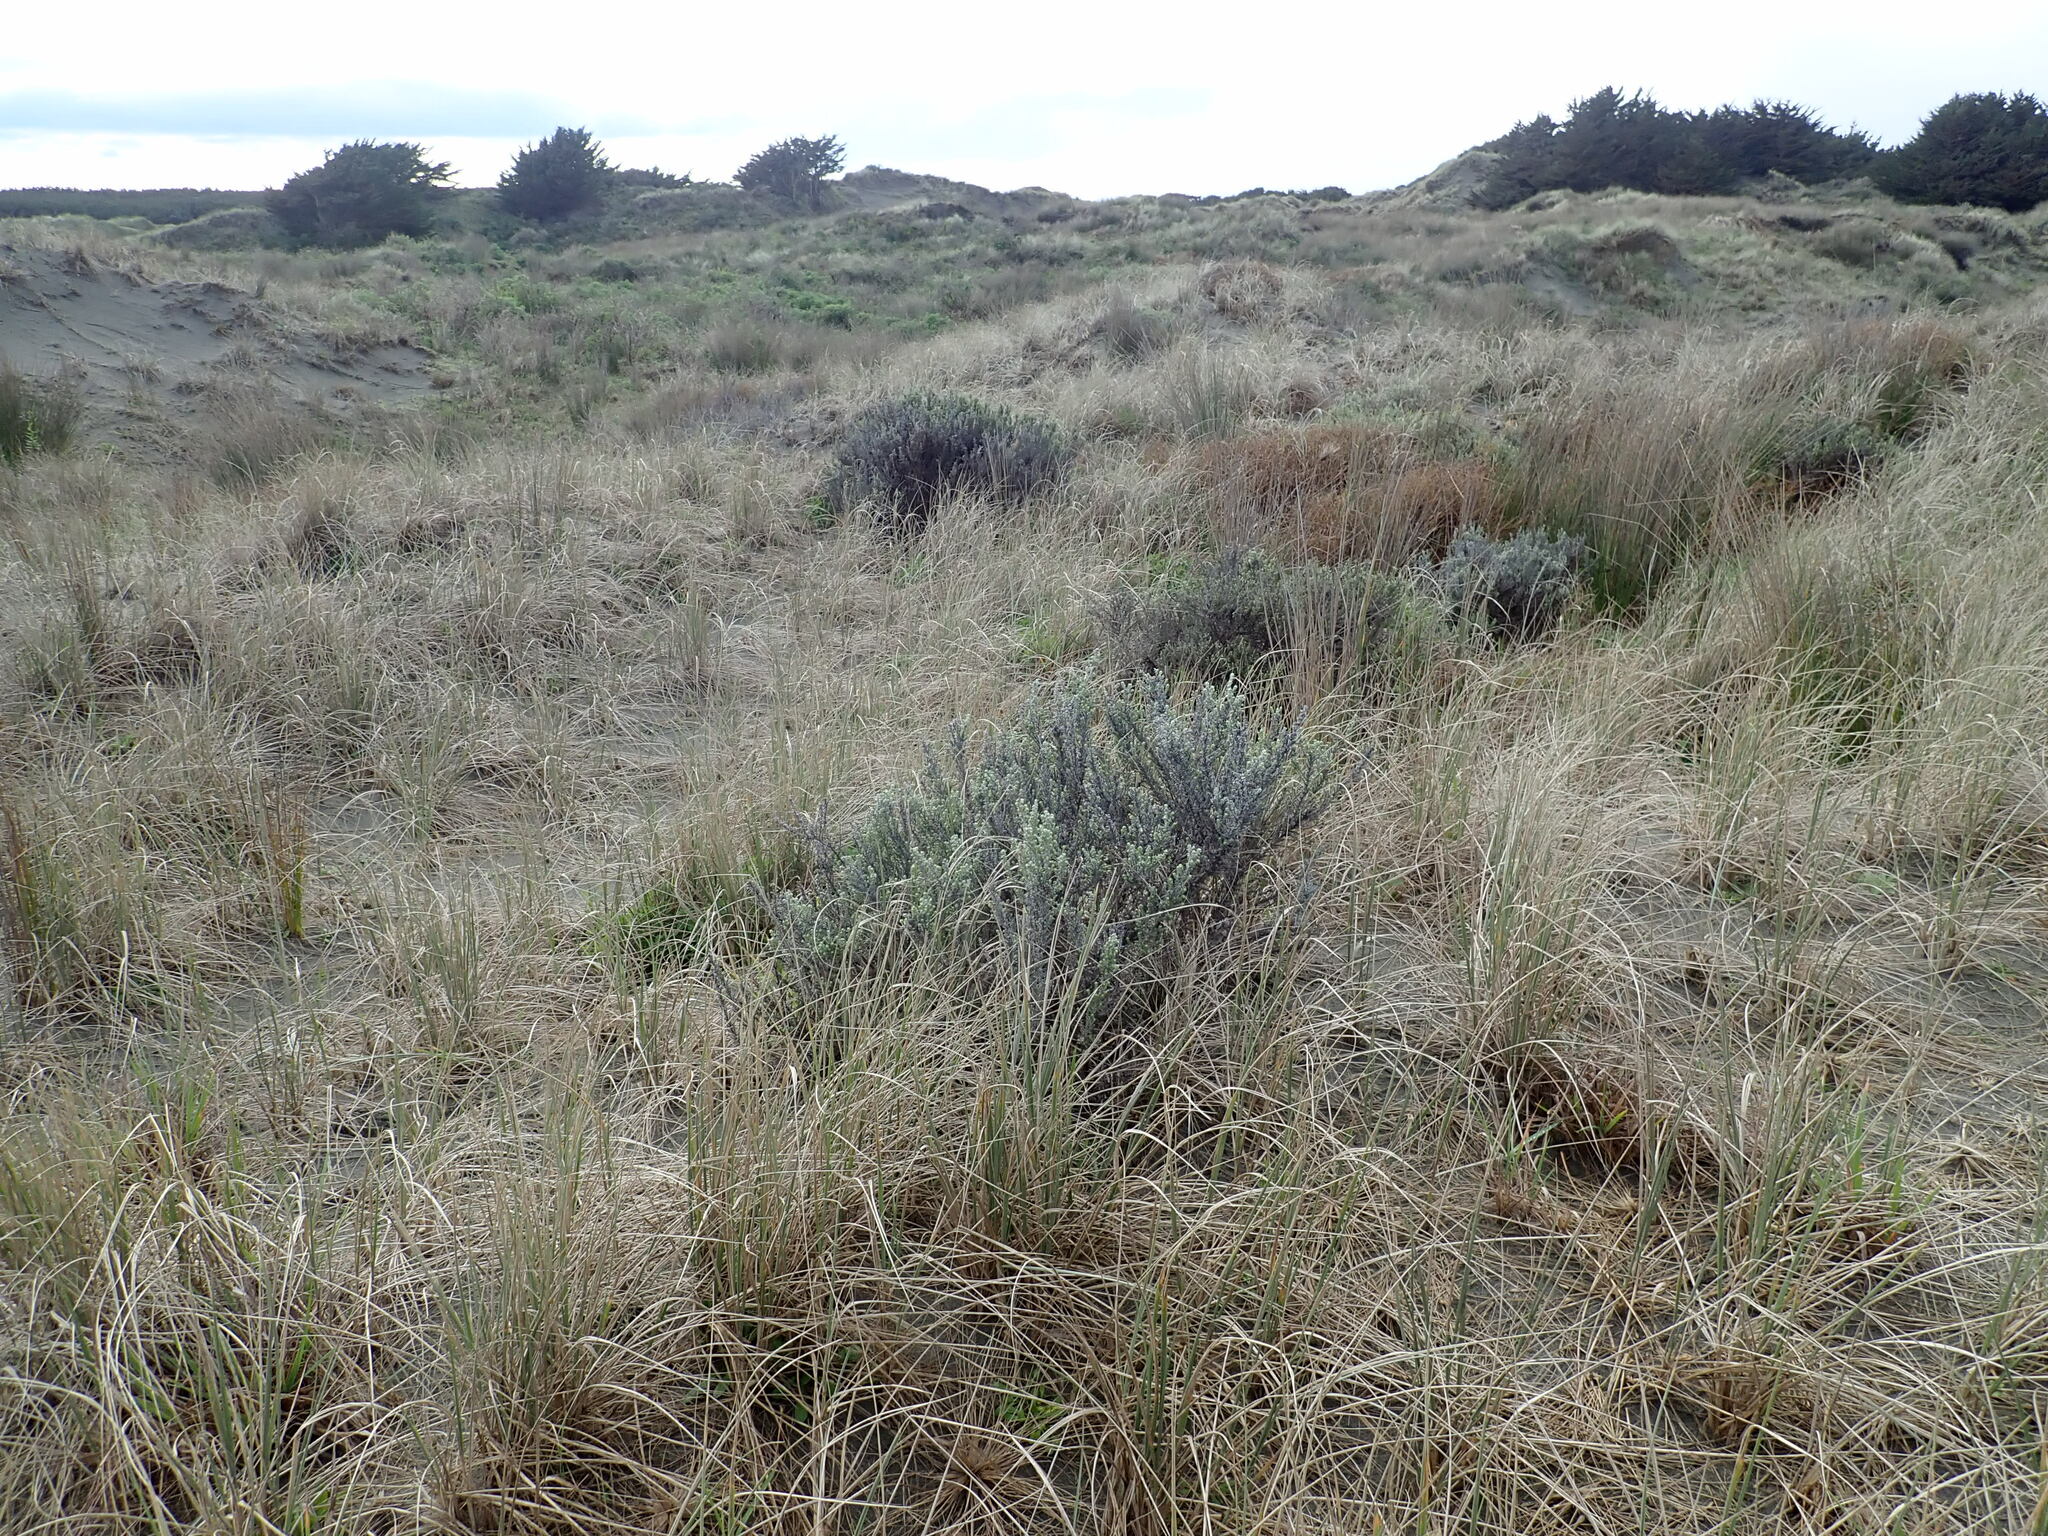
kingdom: Plantae
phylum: Tracheophyta
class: Magnoliopsida
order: Asterales
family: Asteraceae
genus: Ozothamnus
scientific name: Ozothamnus leptophyllus
